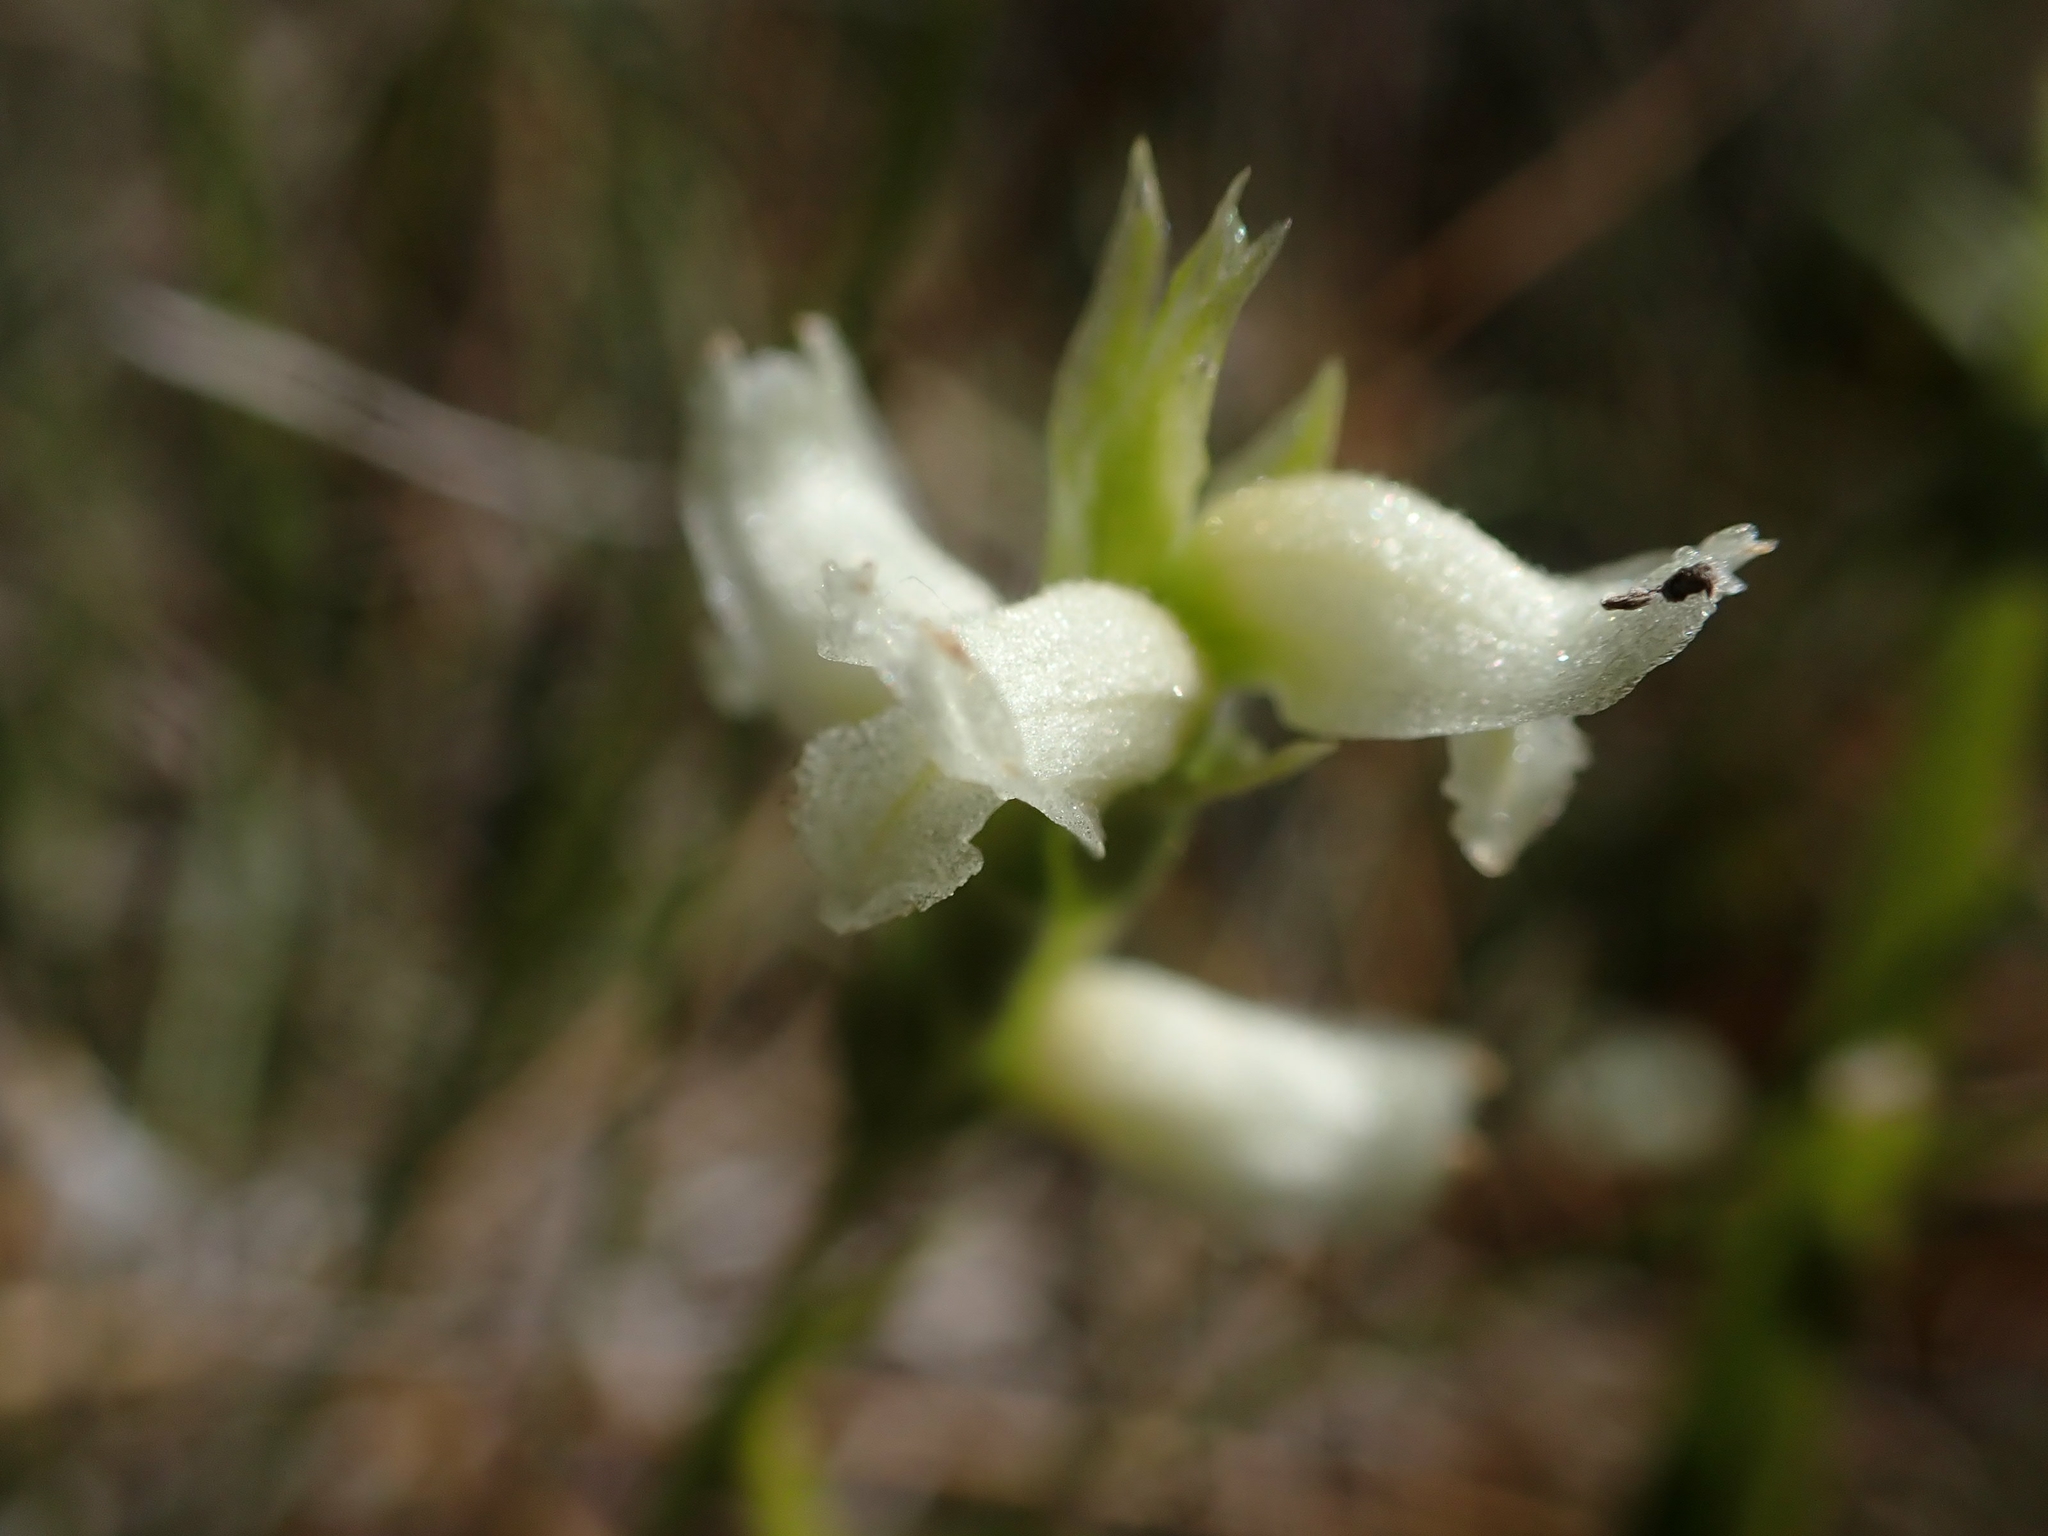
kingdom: Plantae
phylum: Tracheophyta
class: Liliopsida
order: Asparagales
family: Orchidaceae
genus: Spiranthes
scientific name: Spiranthes romanzoffiana
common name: Irish lady's-tresses
